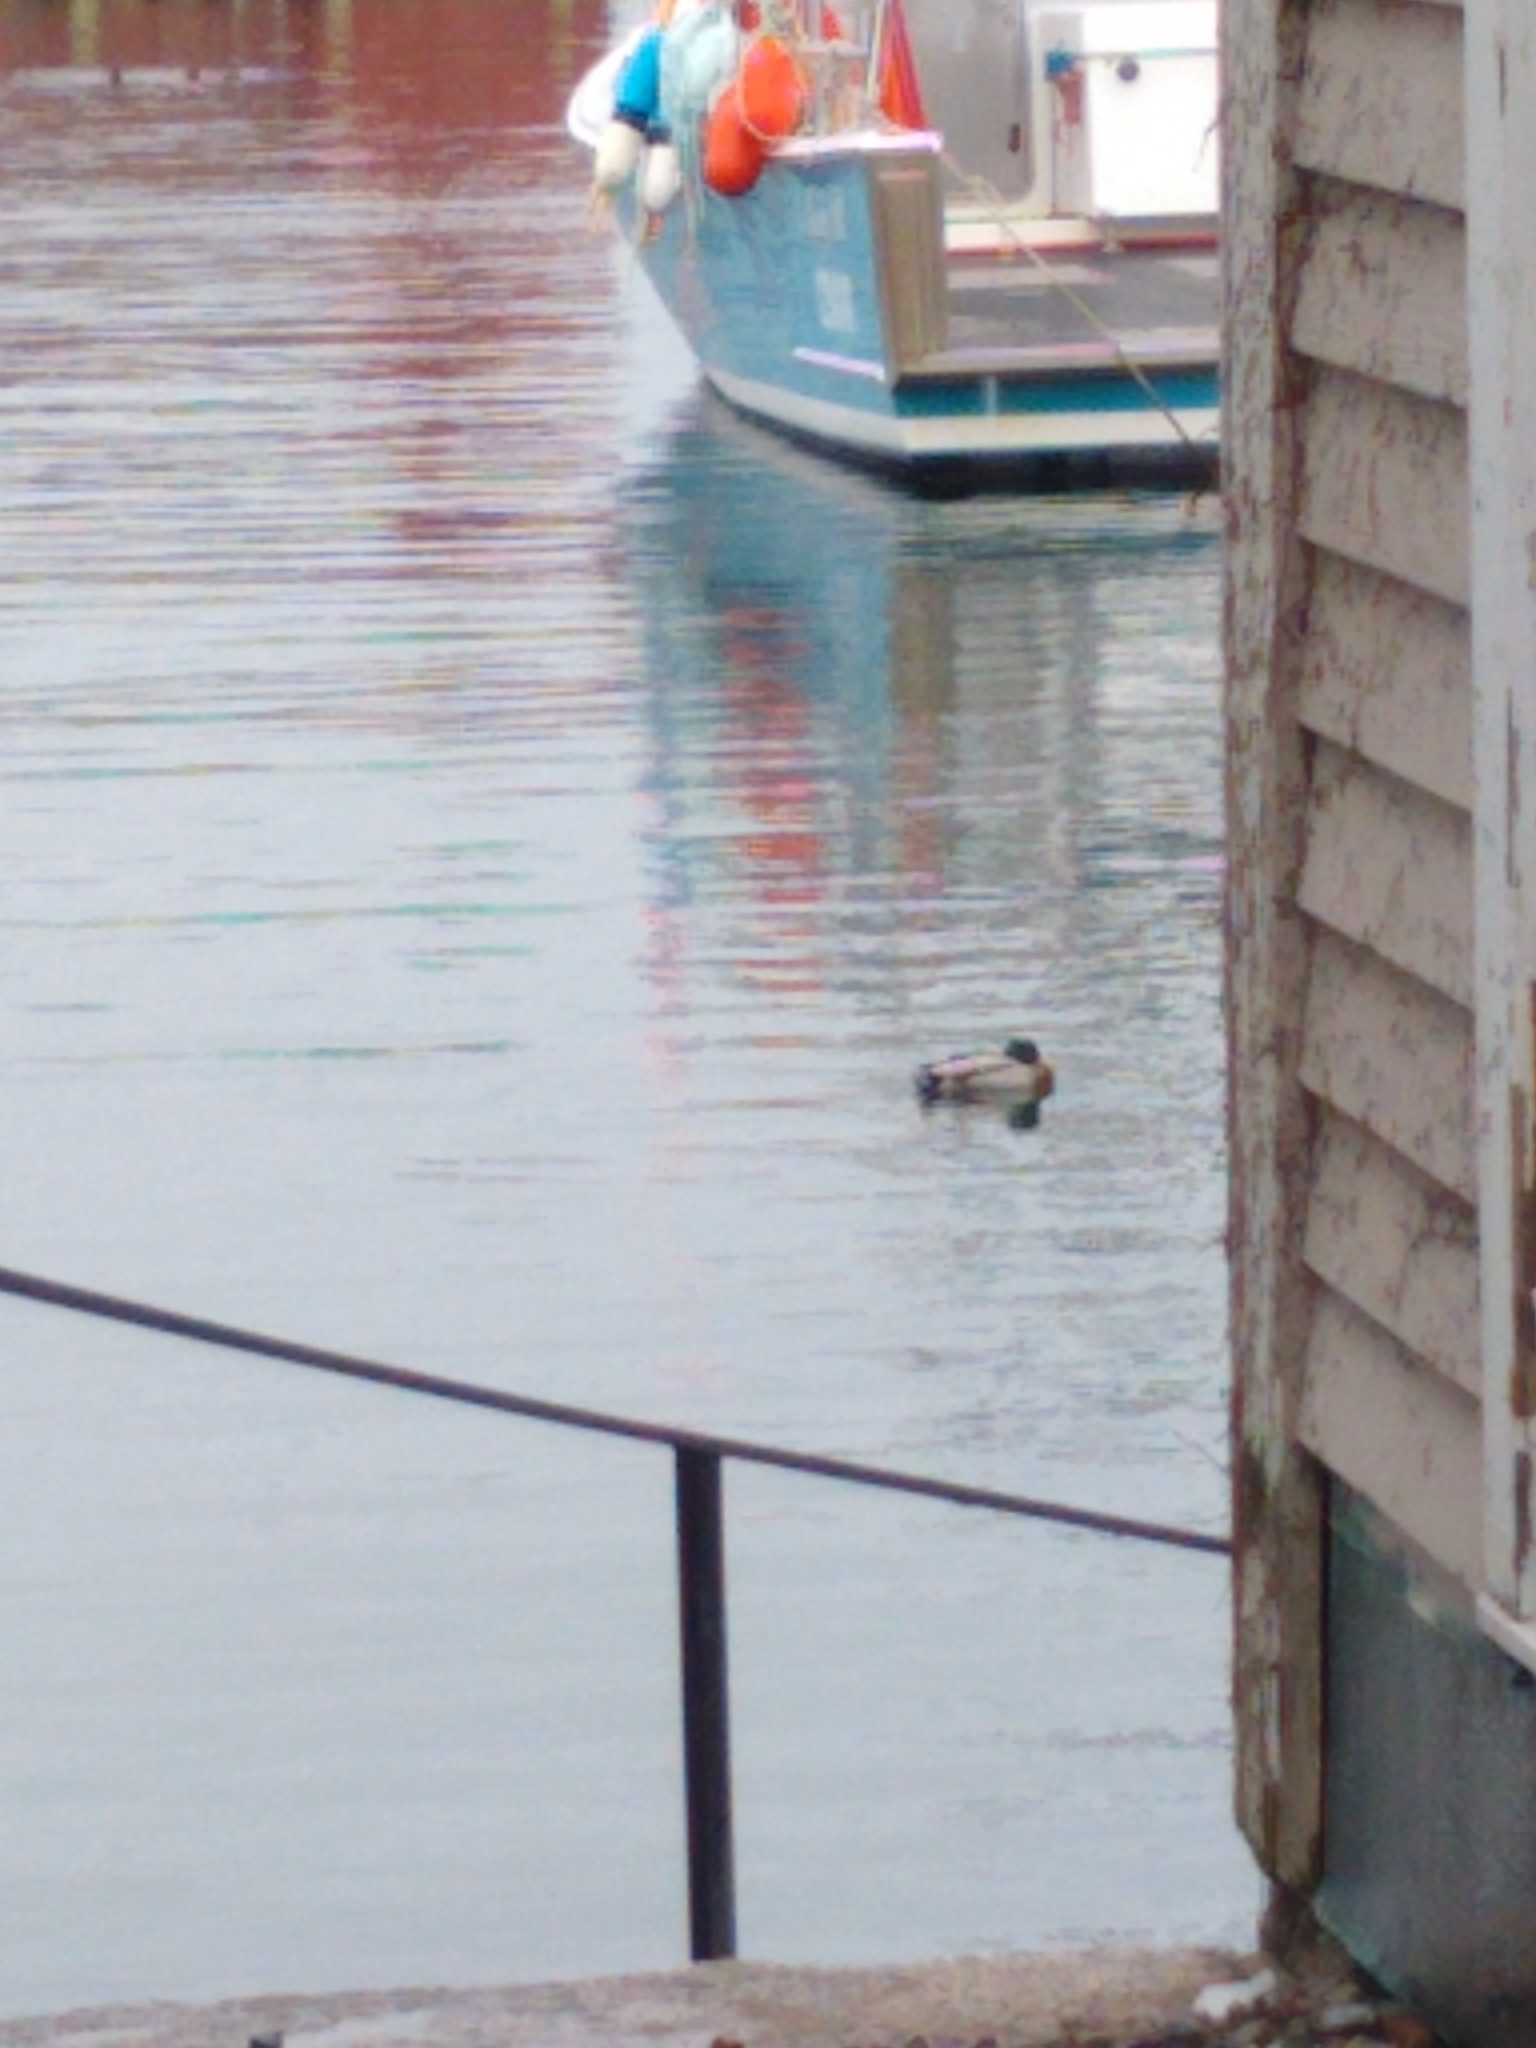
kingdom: Animalia
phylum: Chordata
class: Aves
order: Anseriformes
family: Anatidae
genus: Anas
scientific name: Anas platyrhynchos
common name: Mallard
